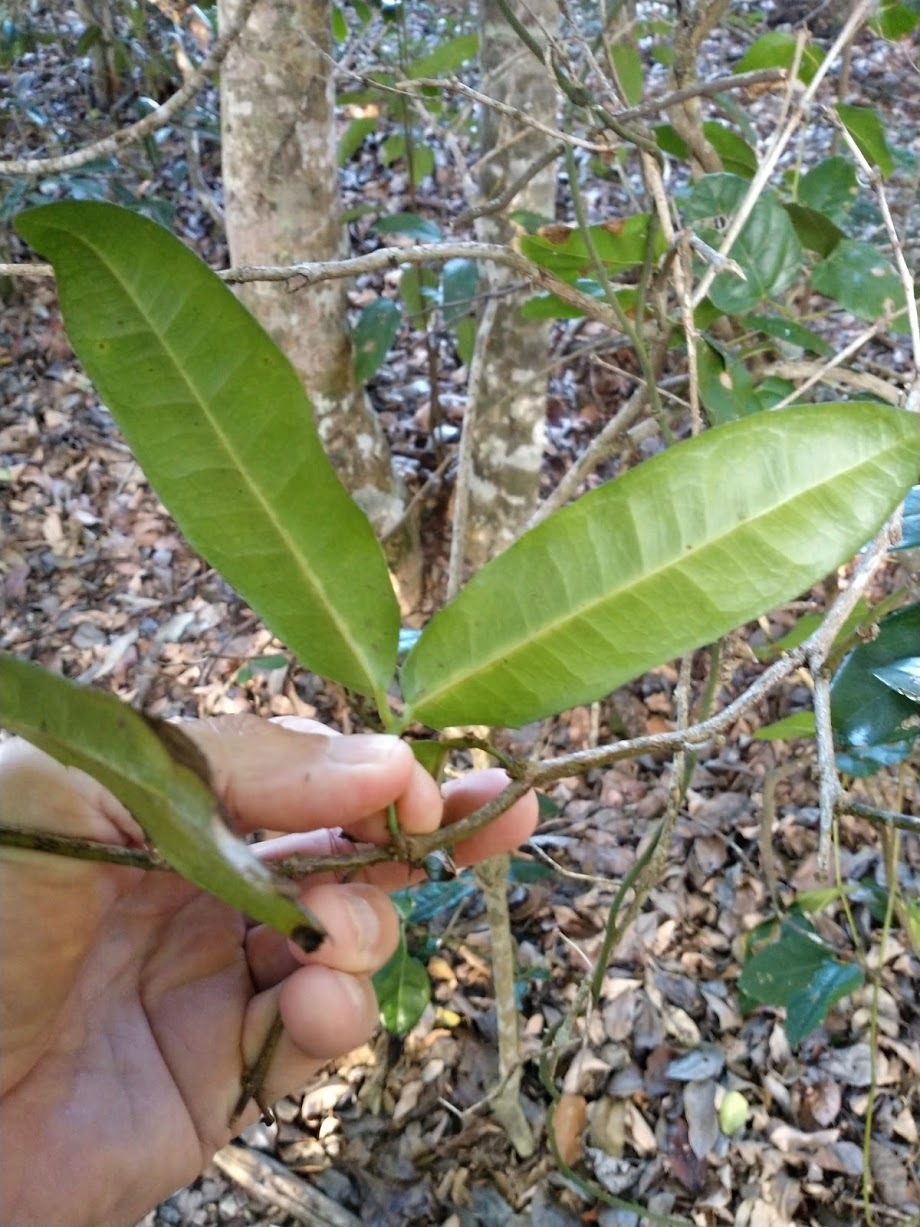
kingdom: Plantae
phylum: Tracheophyta
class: Magnoliopsida
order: Laurales
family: Monimiaceae
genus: Wilkiea
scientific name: Wilkiea macrophylla
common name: Large-leaved wilkiea
